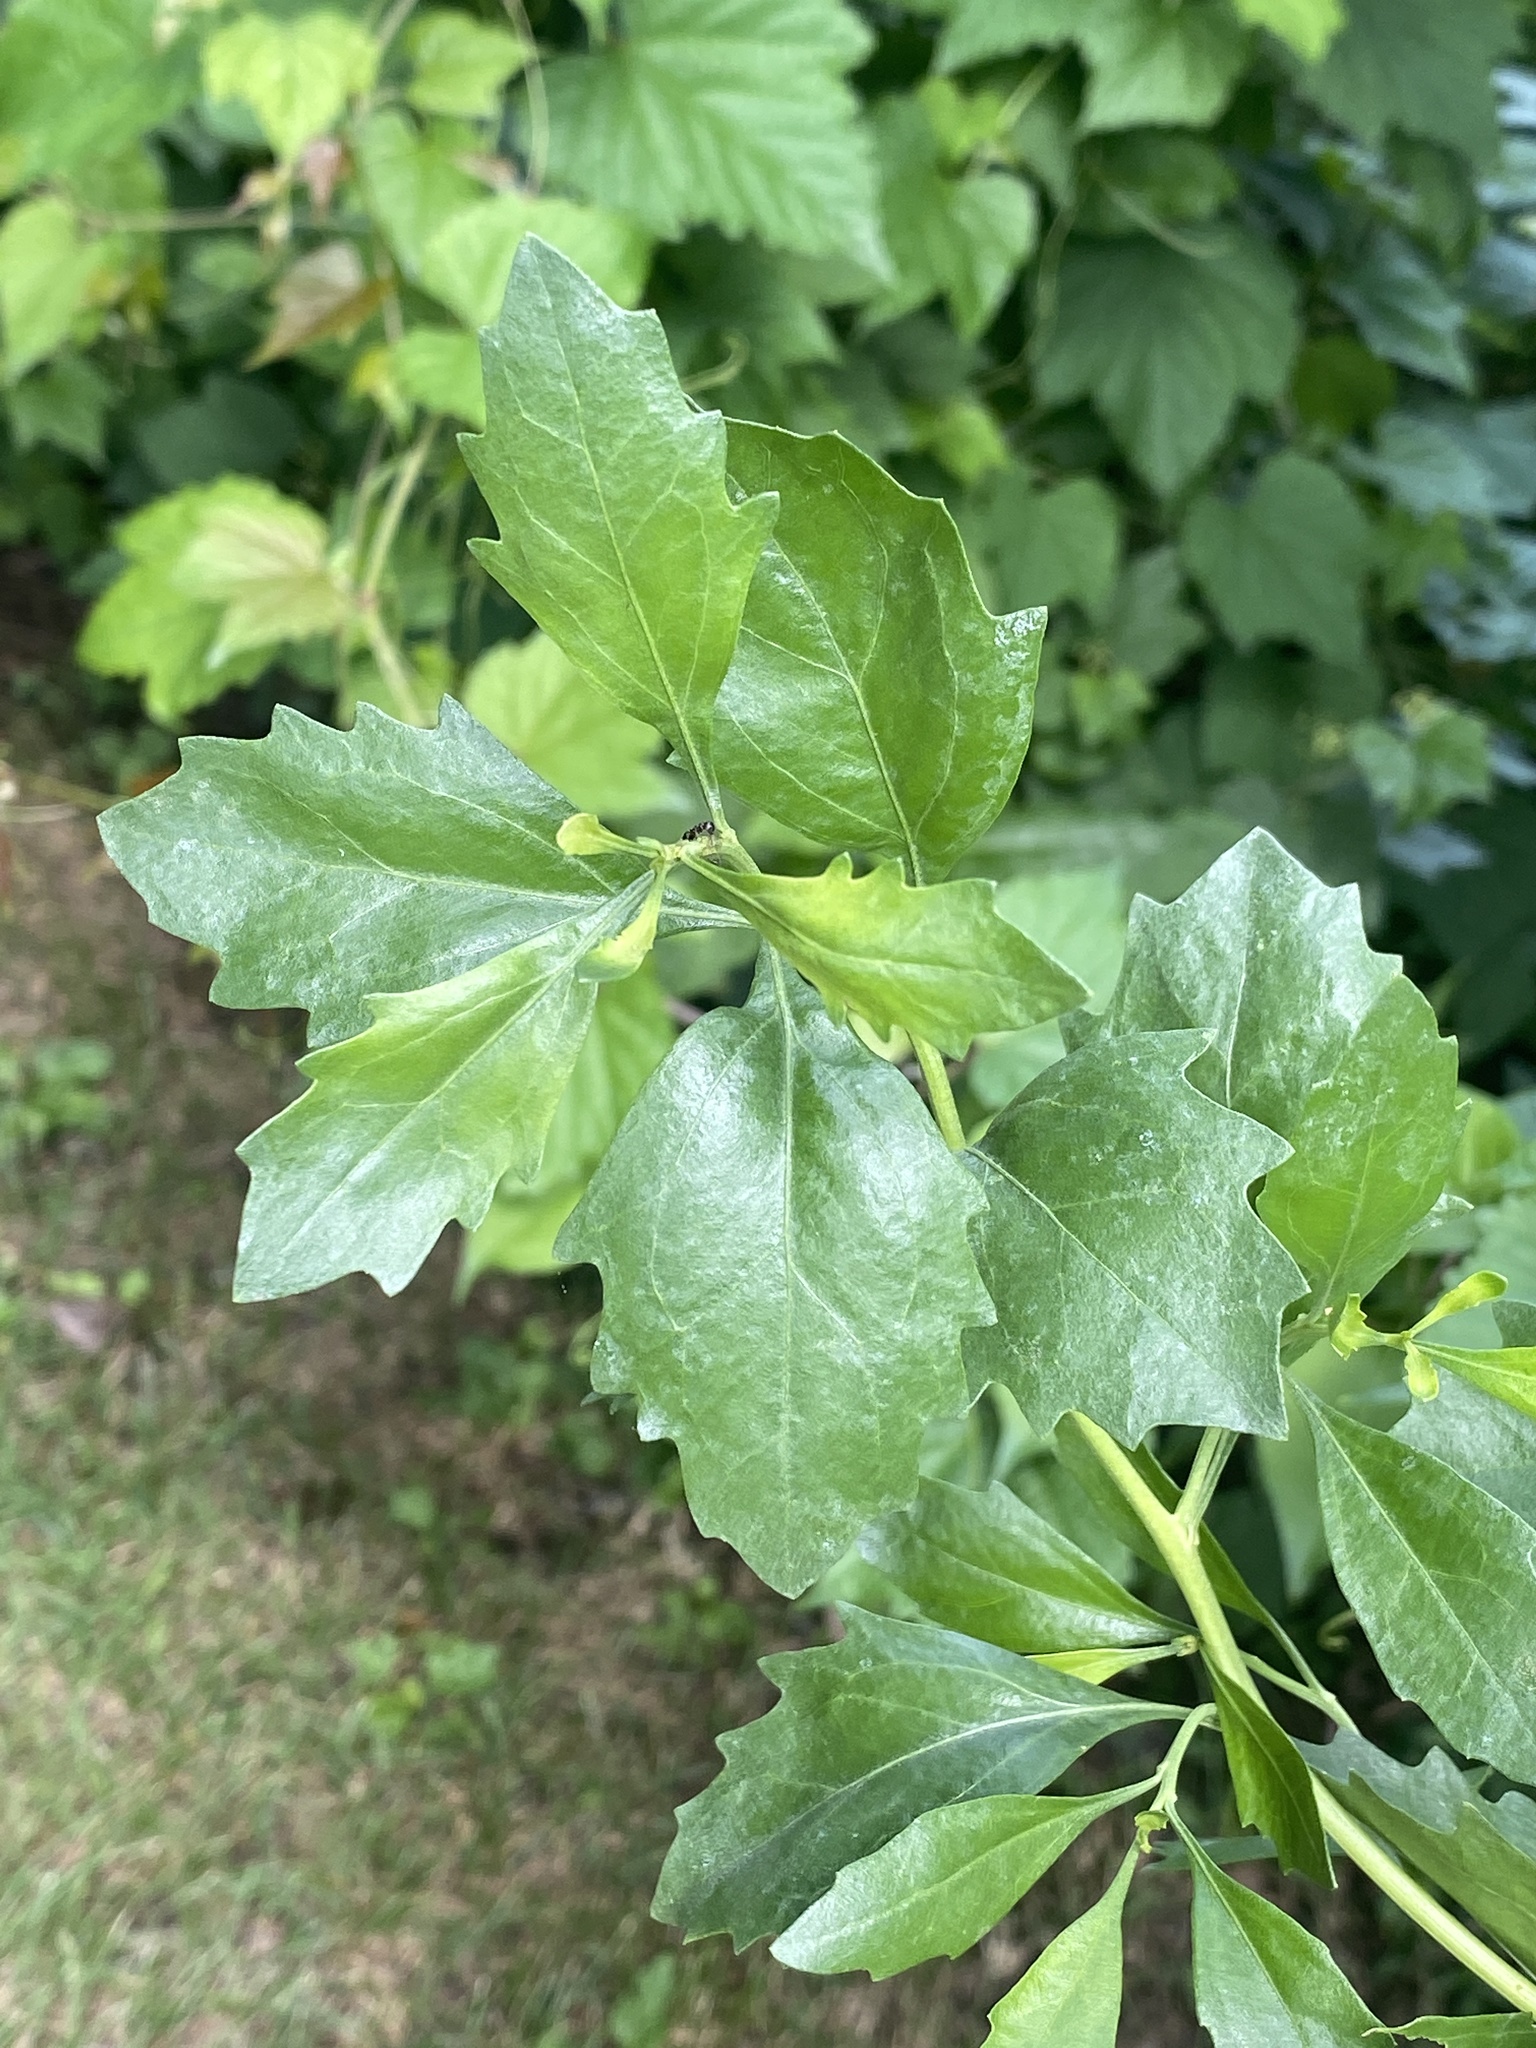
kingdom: Plantae
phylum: Tracheophyta
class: Magnoliopsida
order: Asterales
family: Asteraceae
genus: Baccharis
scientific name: Baccharis halimifolia
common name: Eastern baccharis
